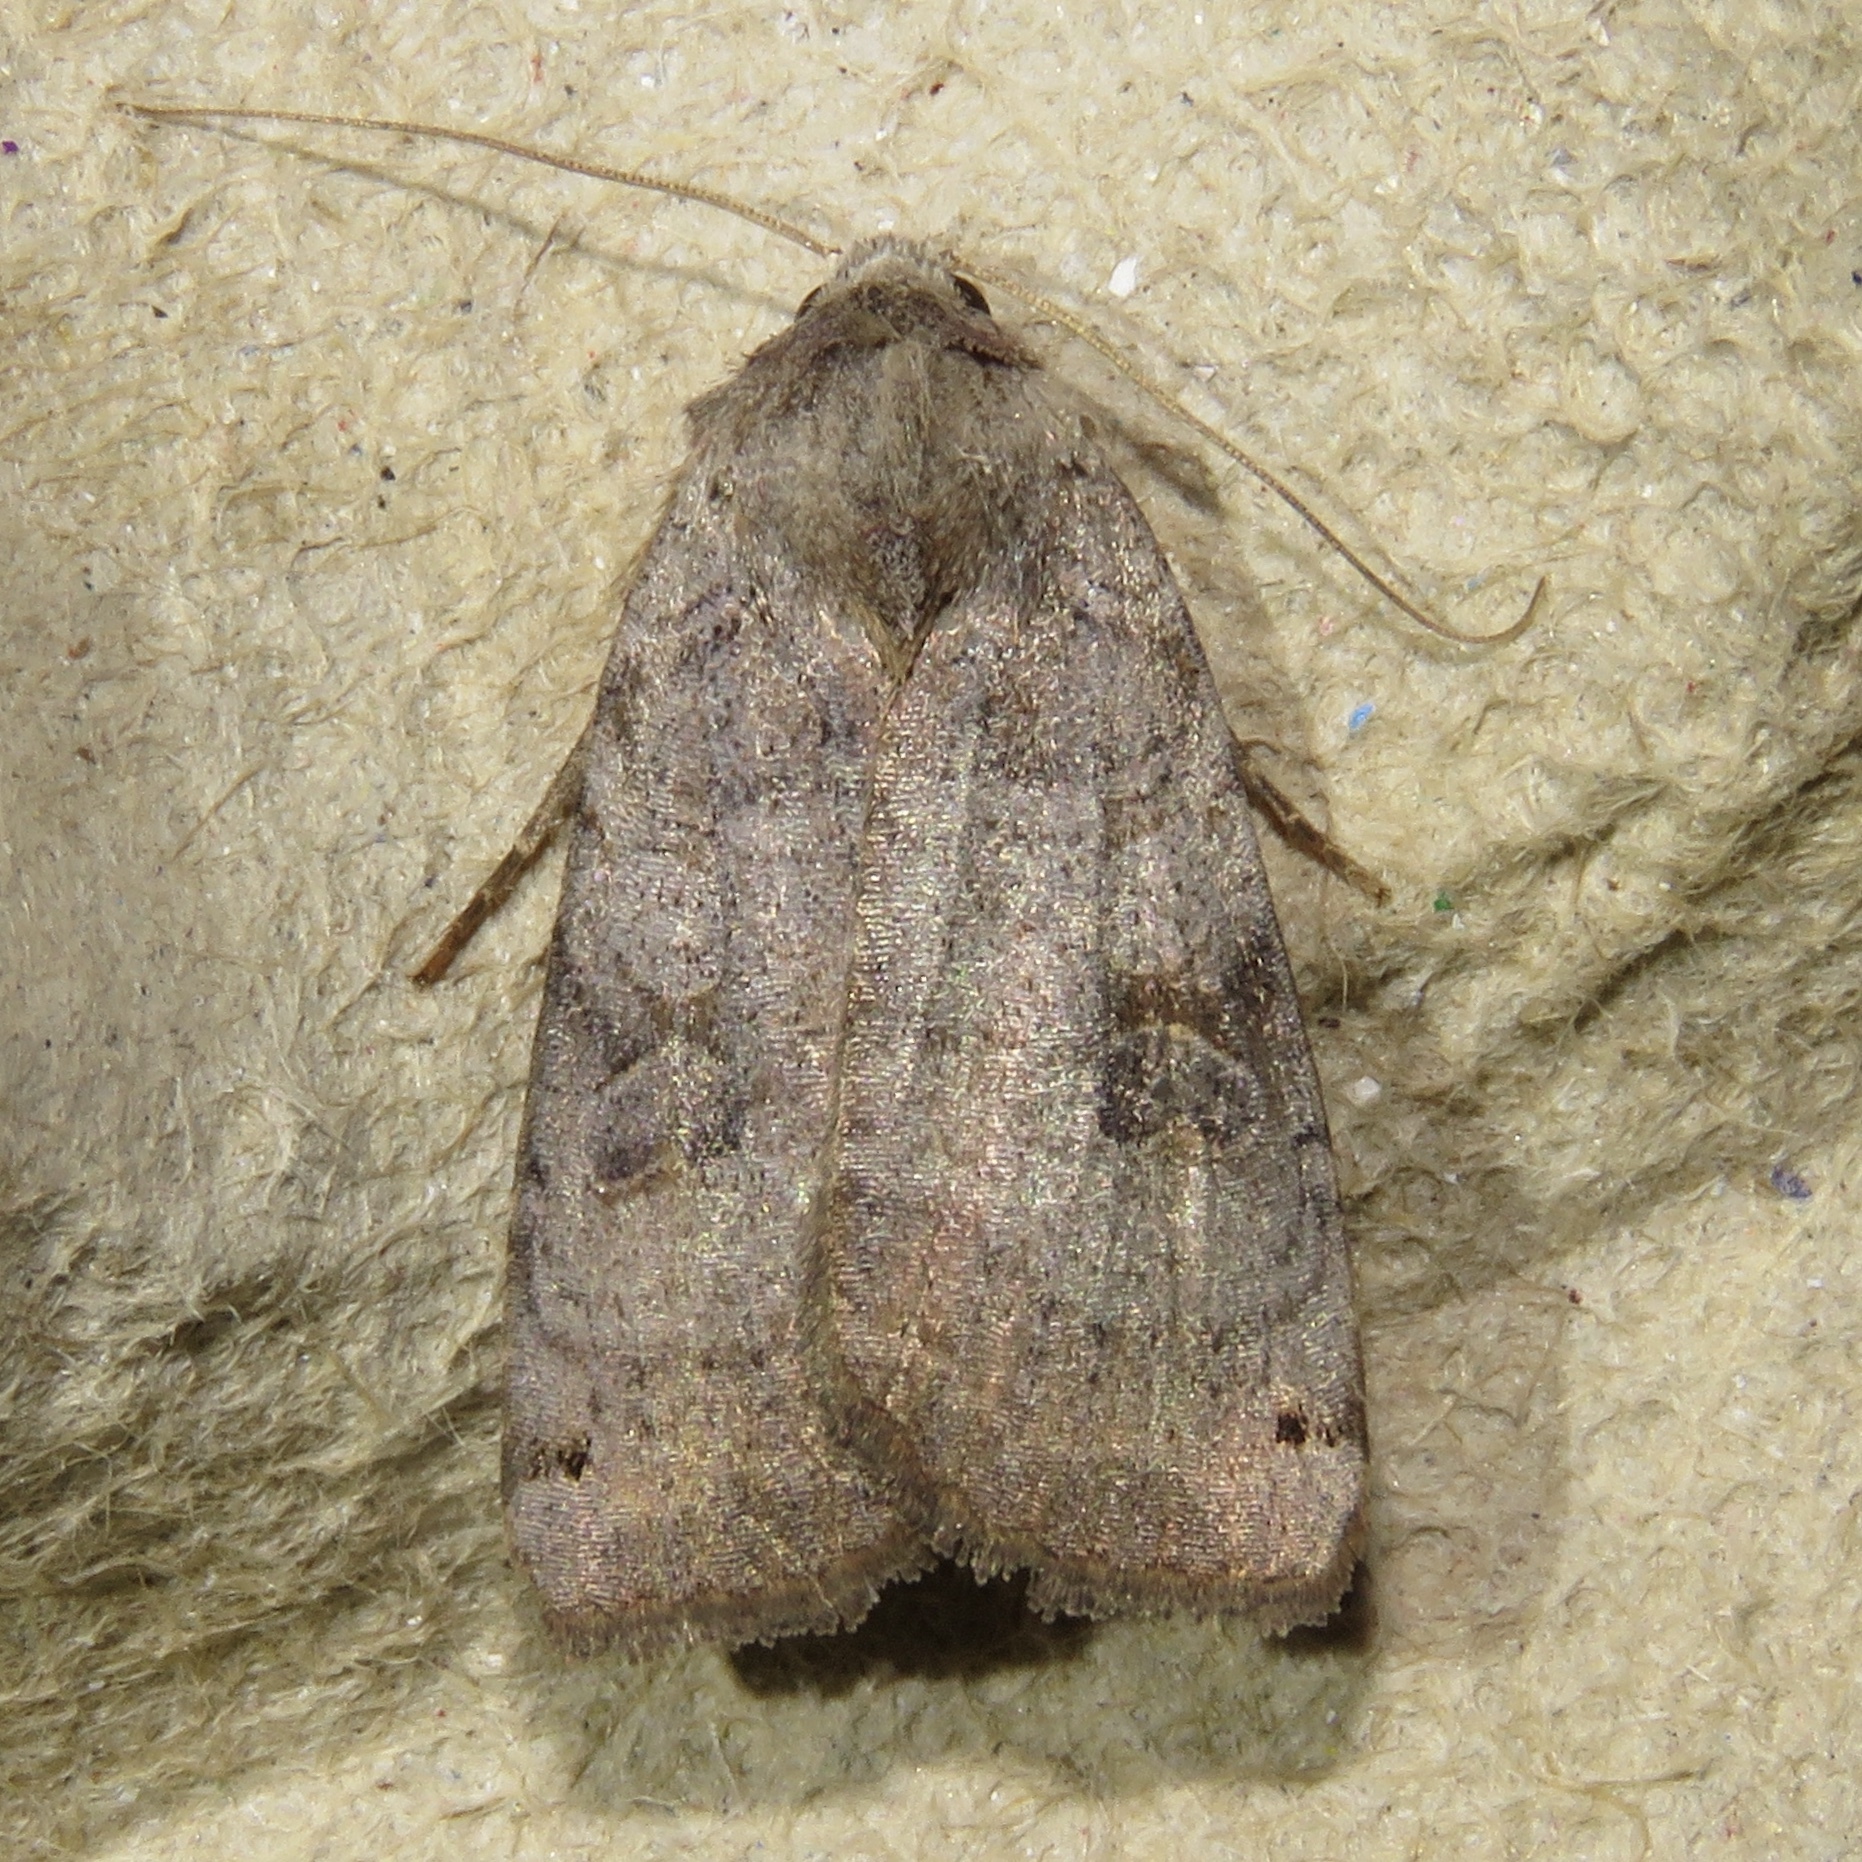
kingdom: Animalia
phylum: Arthropoda
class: Insecta
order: Lepidoptera
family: Noctuidae
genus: Xestia
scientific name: Xestia smithii
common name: Smith's dart
